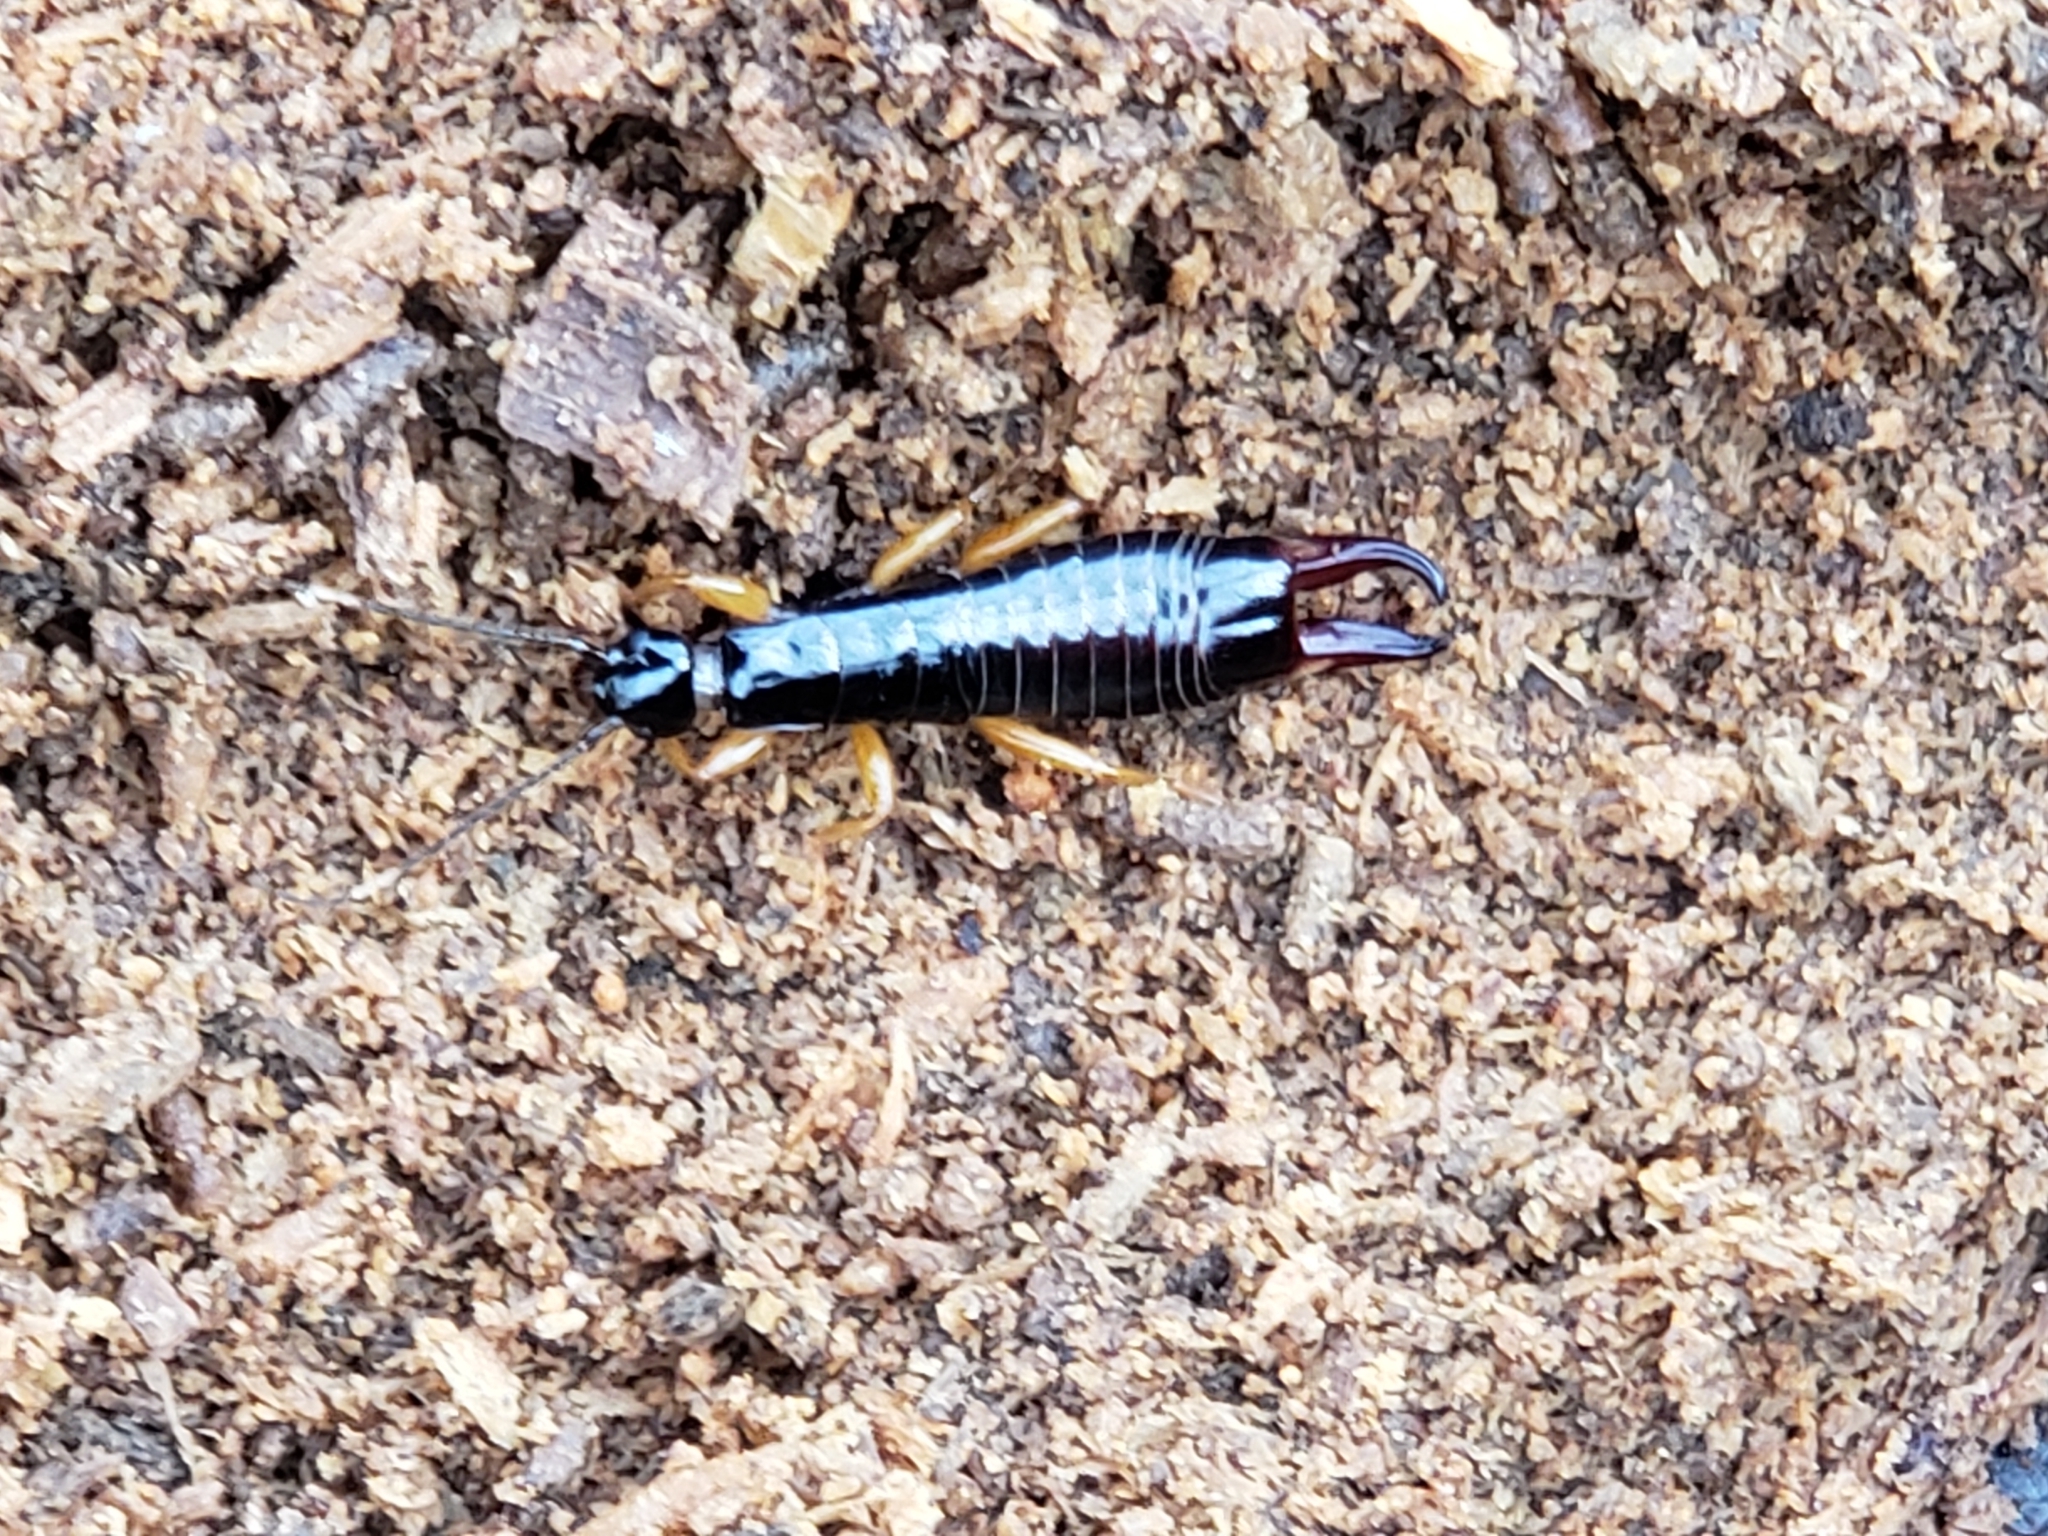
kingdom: Animalia
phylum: Arthropoda
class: Insecta
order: Dermaptera
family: Anisolabididae
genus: Euborellia
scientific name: Euborellia annulipes
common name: Ringlegged earwig
